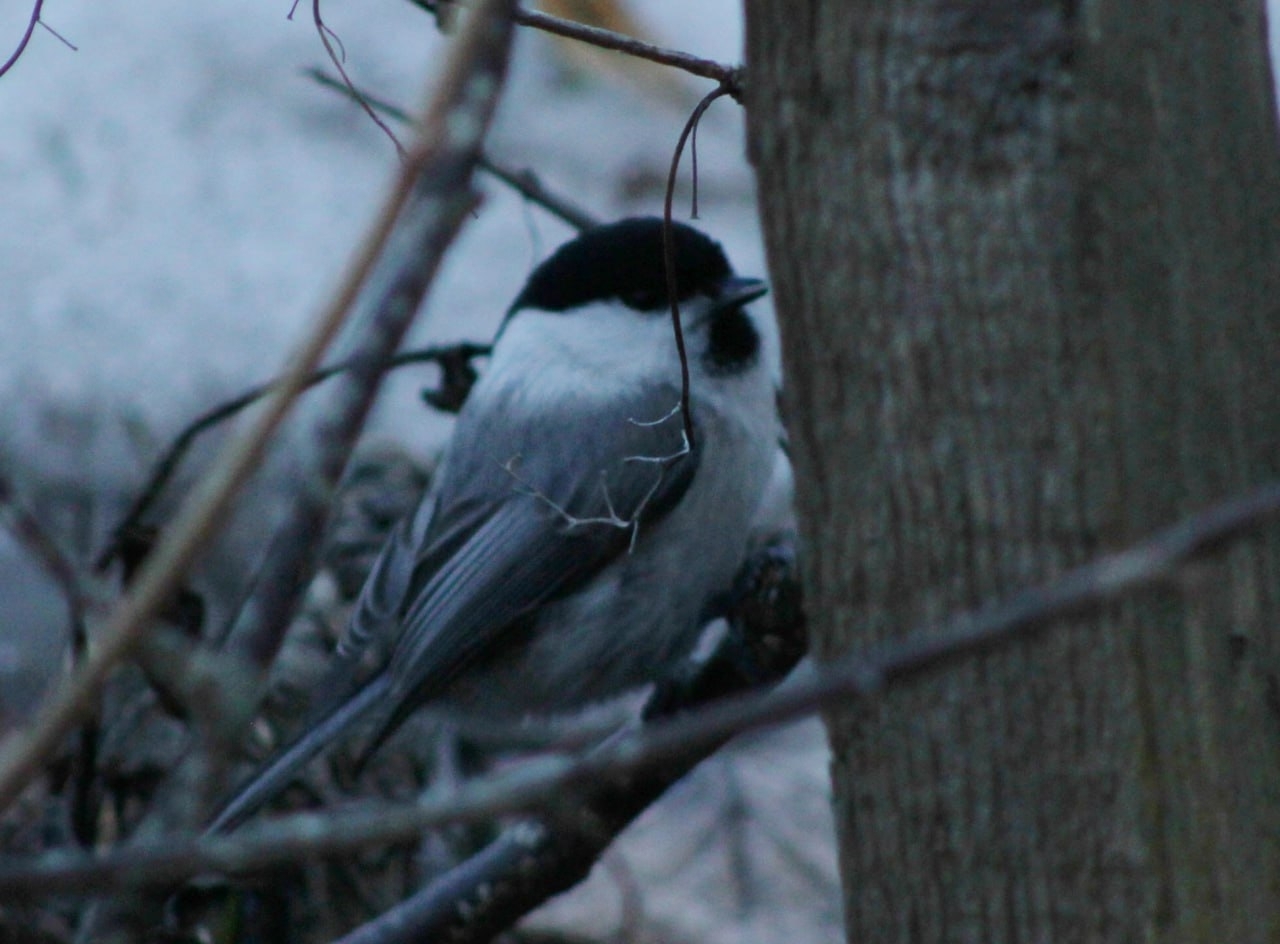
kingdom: Animalia
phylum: Chordata
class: Aves
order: Passeriformes
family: Paridae
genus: Poecile
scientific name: Poecile montanus
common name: Willow tit
